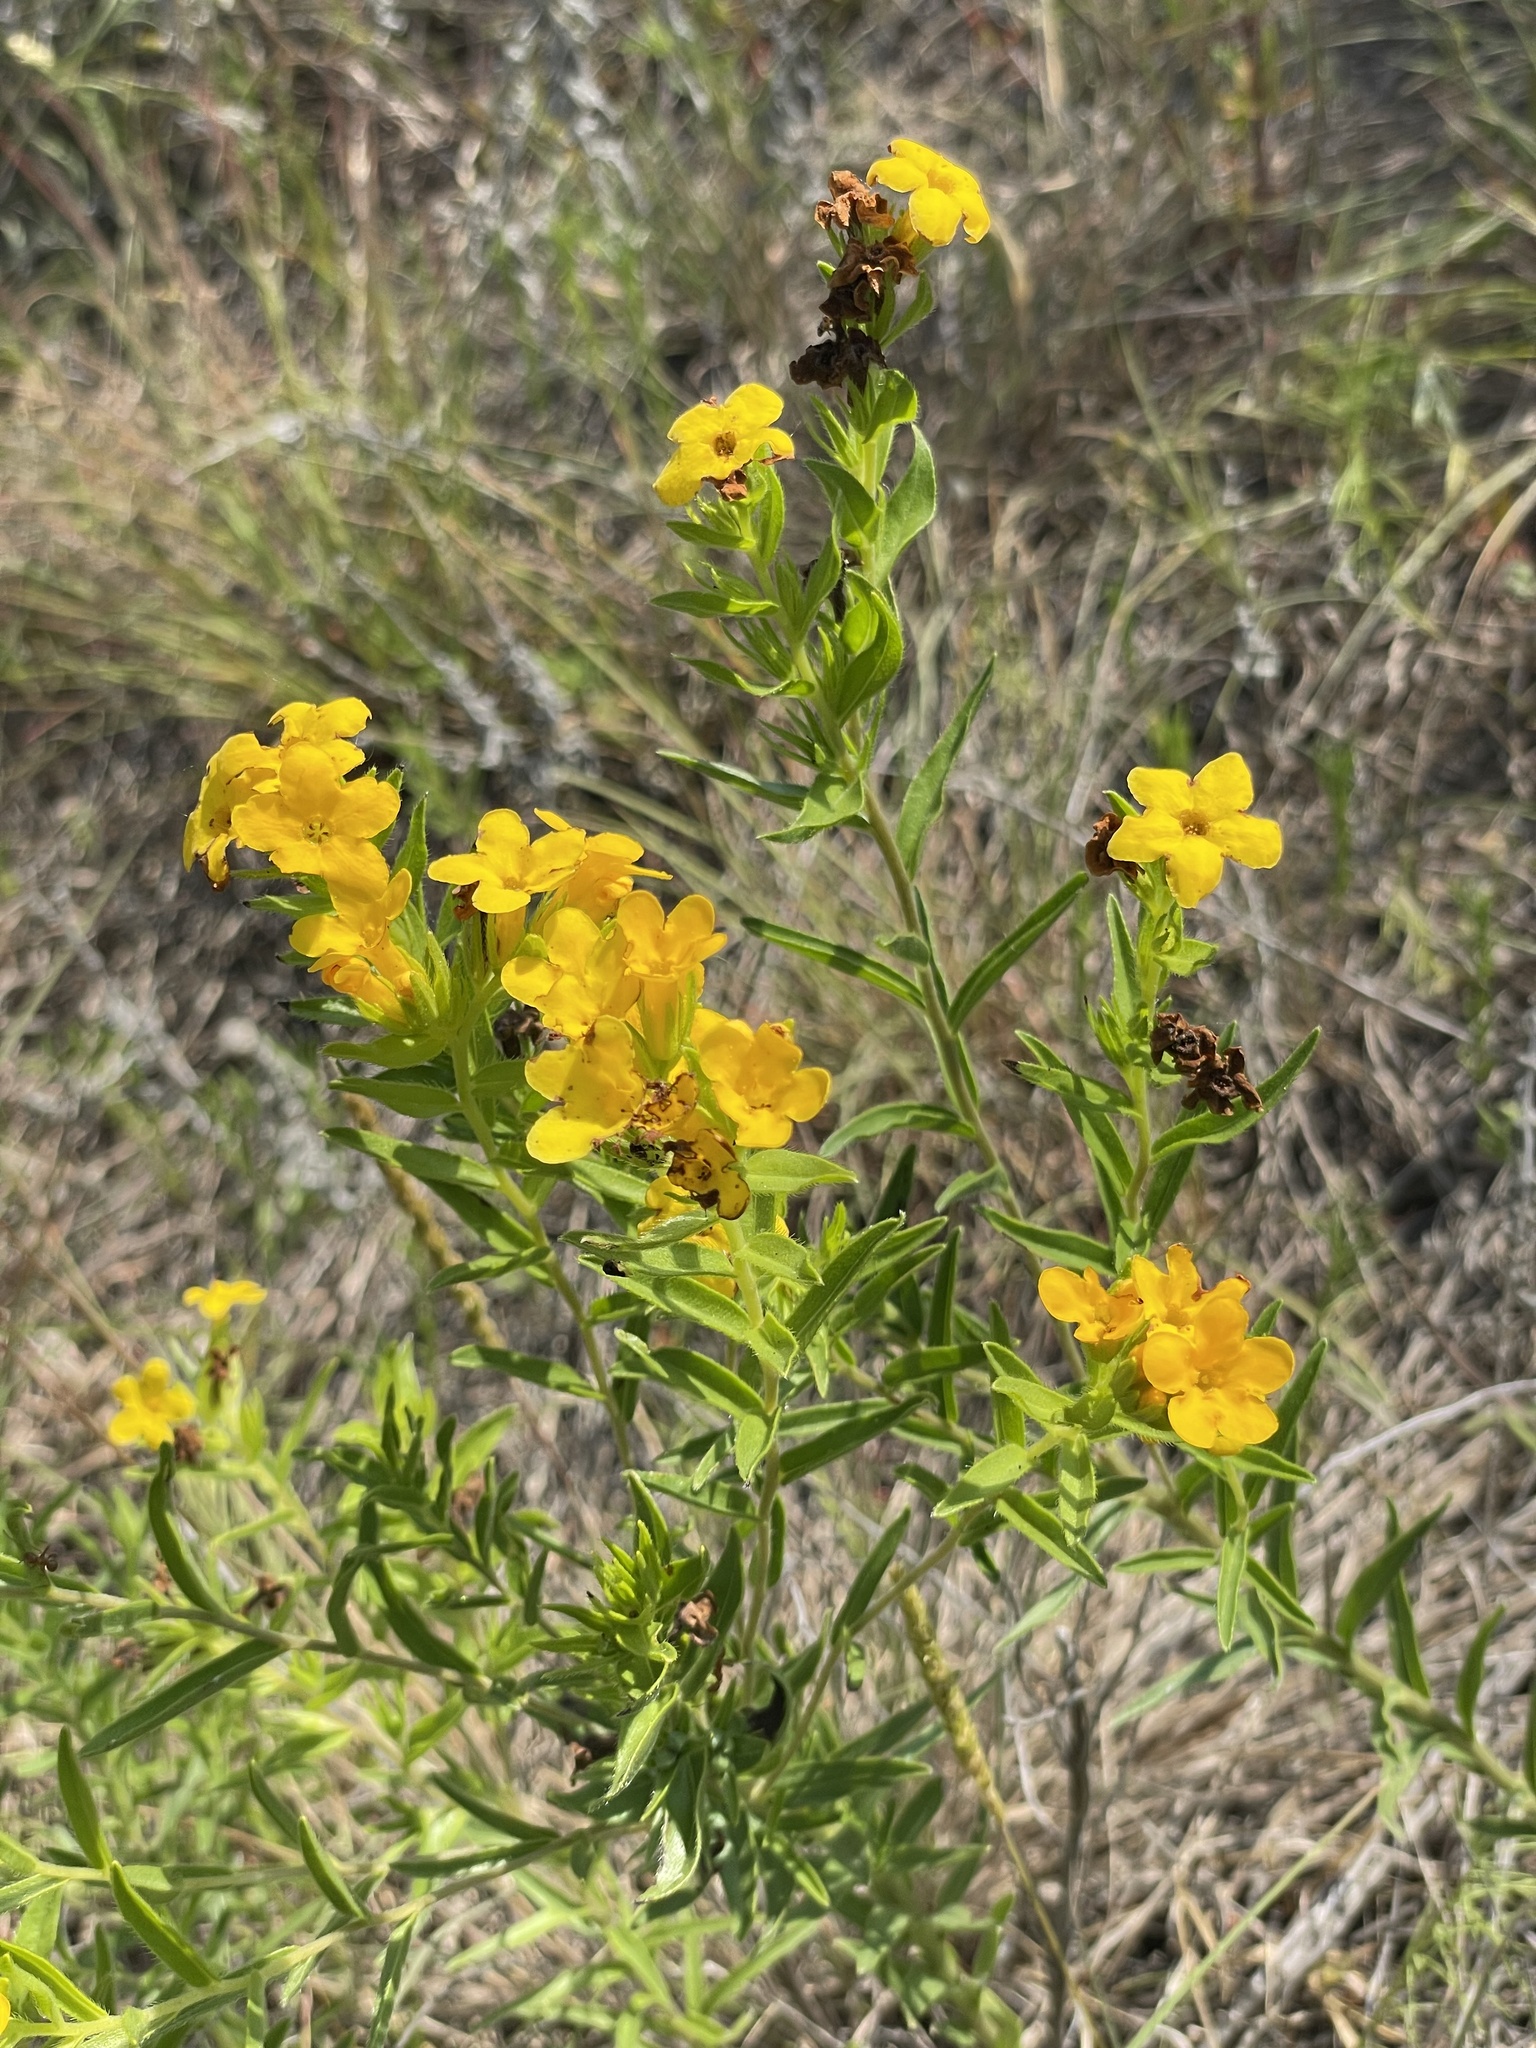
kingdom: Plantae
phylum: Tracheophyta
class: Magnoliopsida
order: Boraginales
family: Boraginaceae
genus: Lithospermum
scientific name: Lithospermum caroliniense
